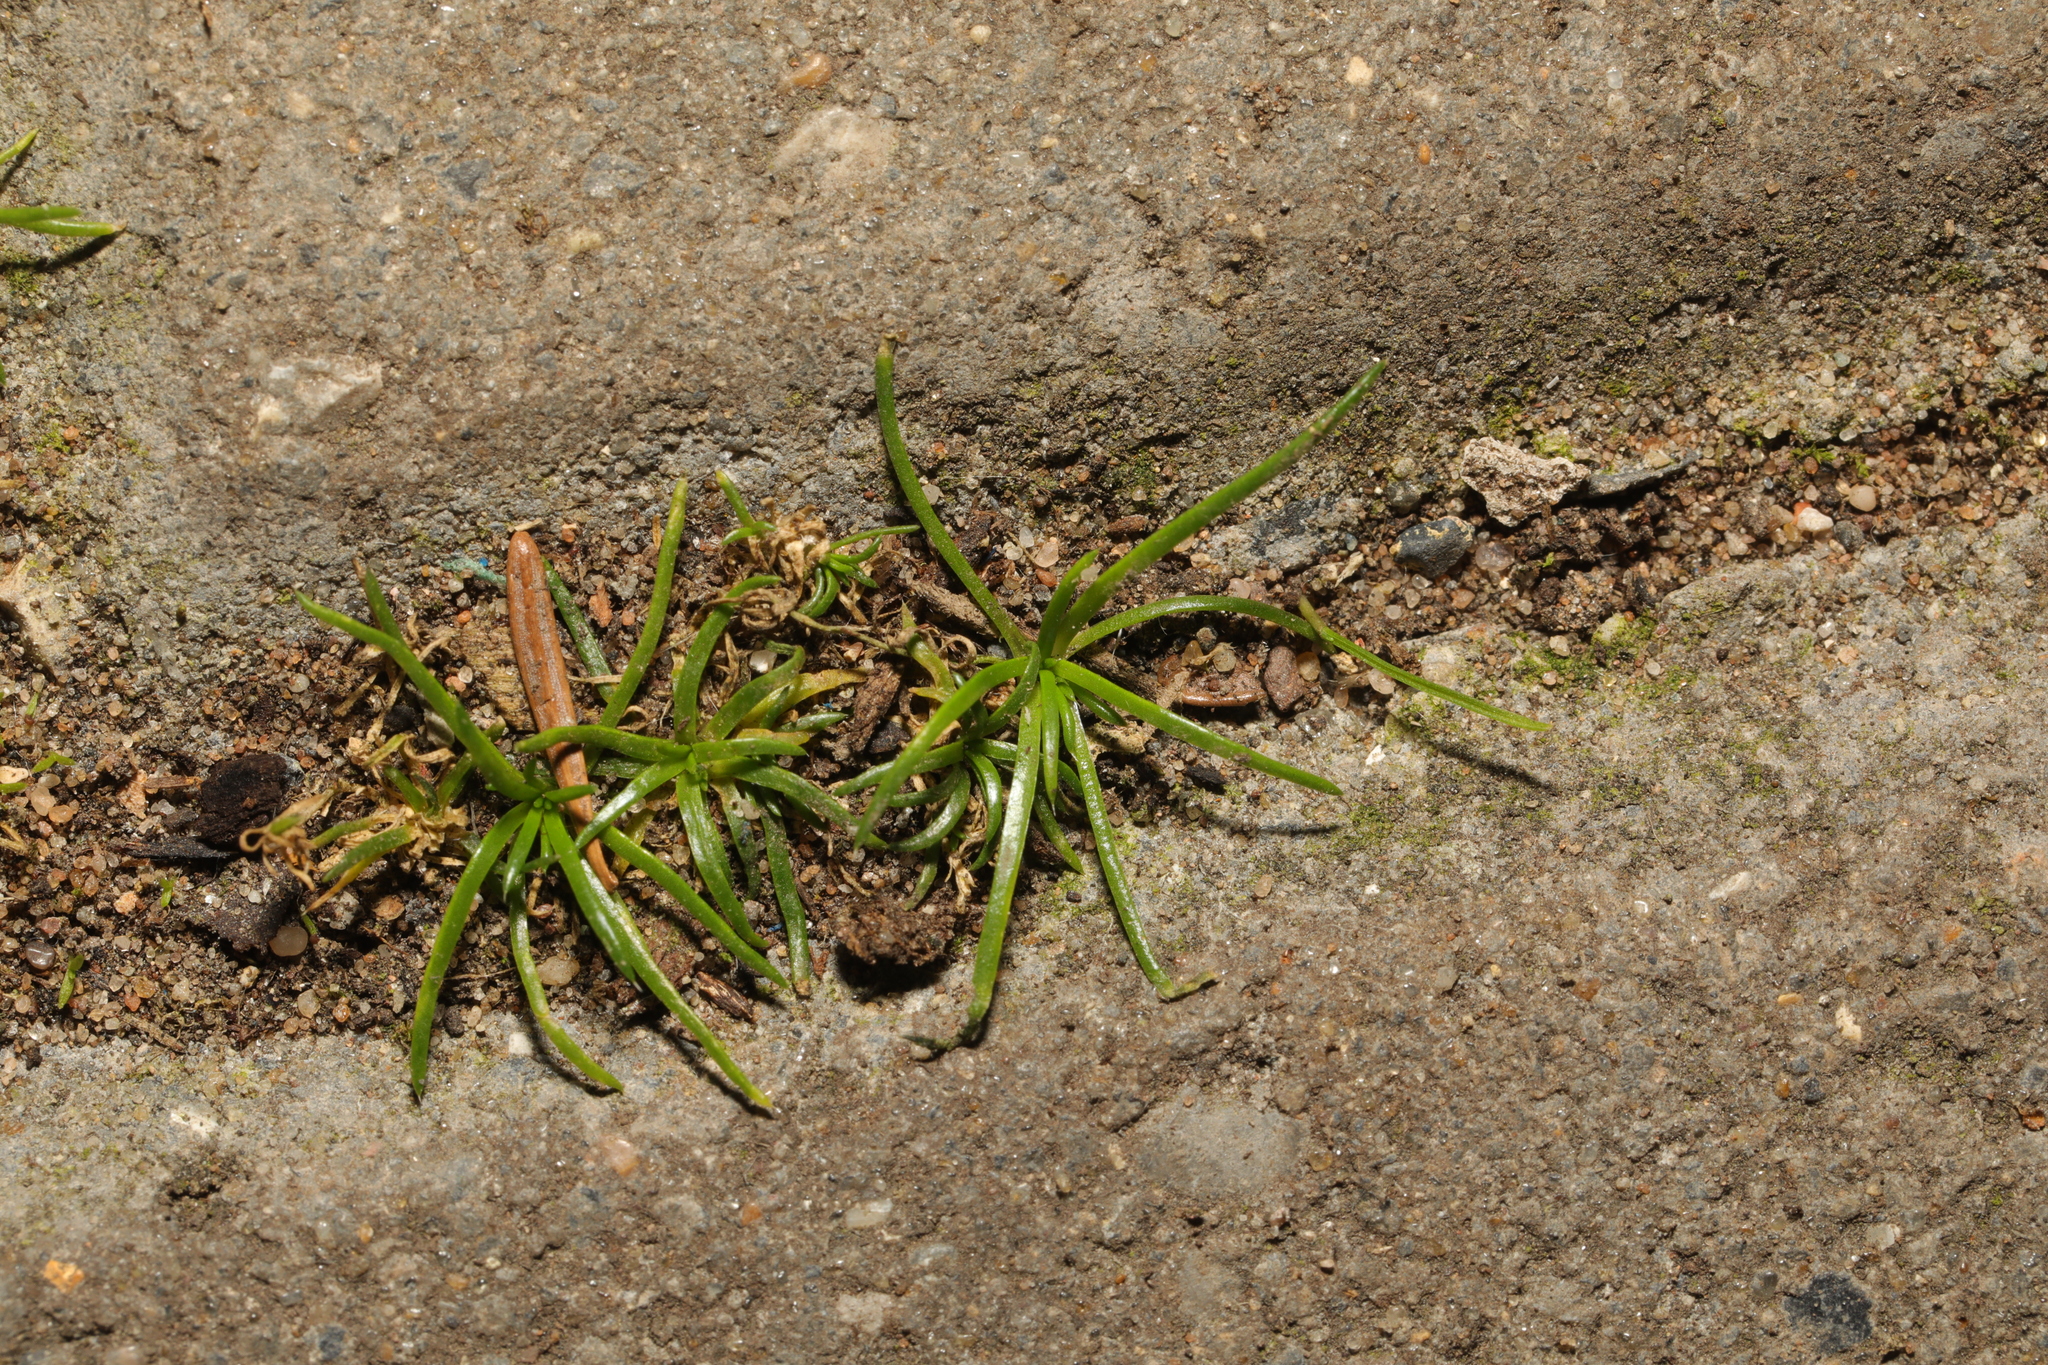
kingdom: Plantae
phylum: Tracheophyta
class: Magnoliopsida
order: Caryophyllales
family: Caryophyllaceae
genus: Sagina
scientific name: Sagina procumbens
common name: Procumbent pearlwort
